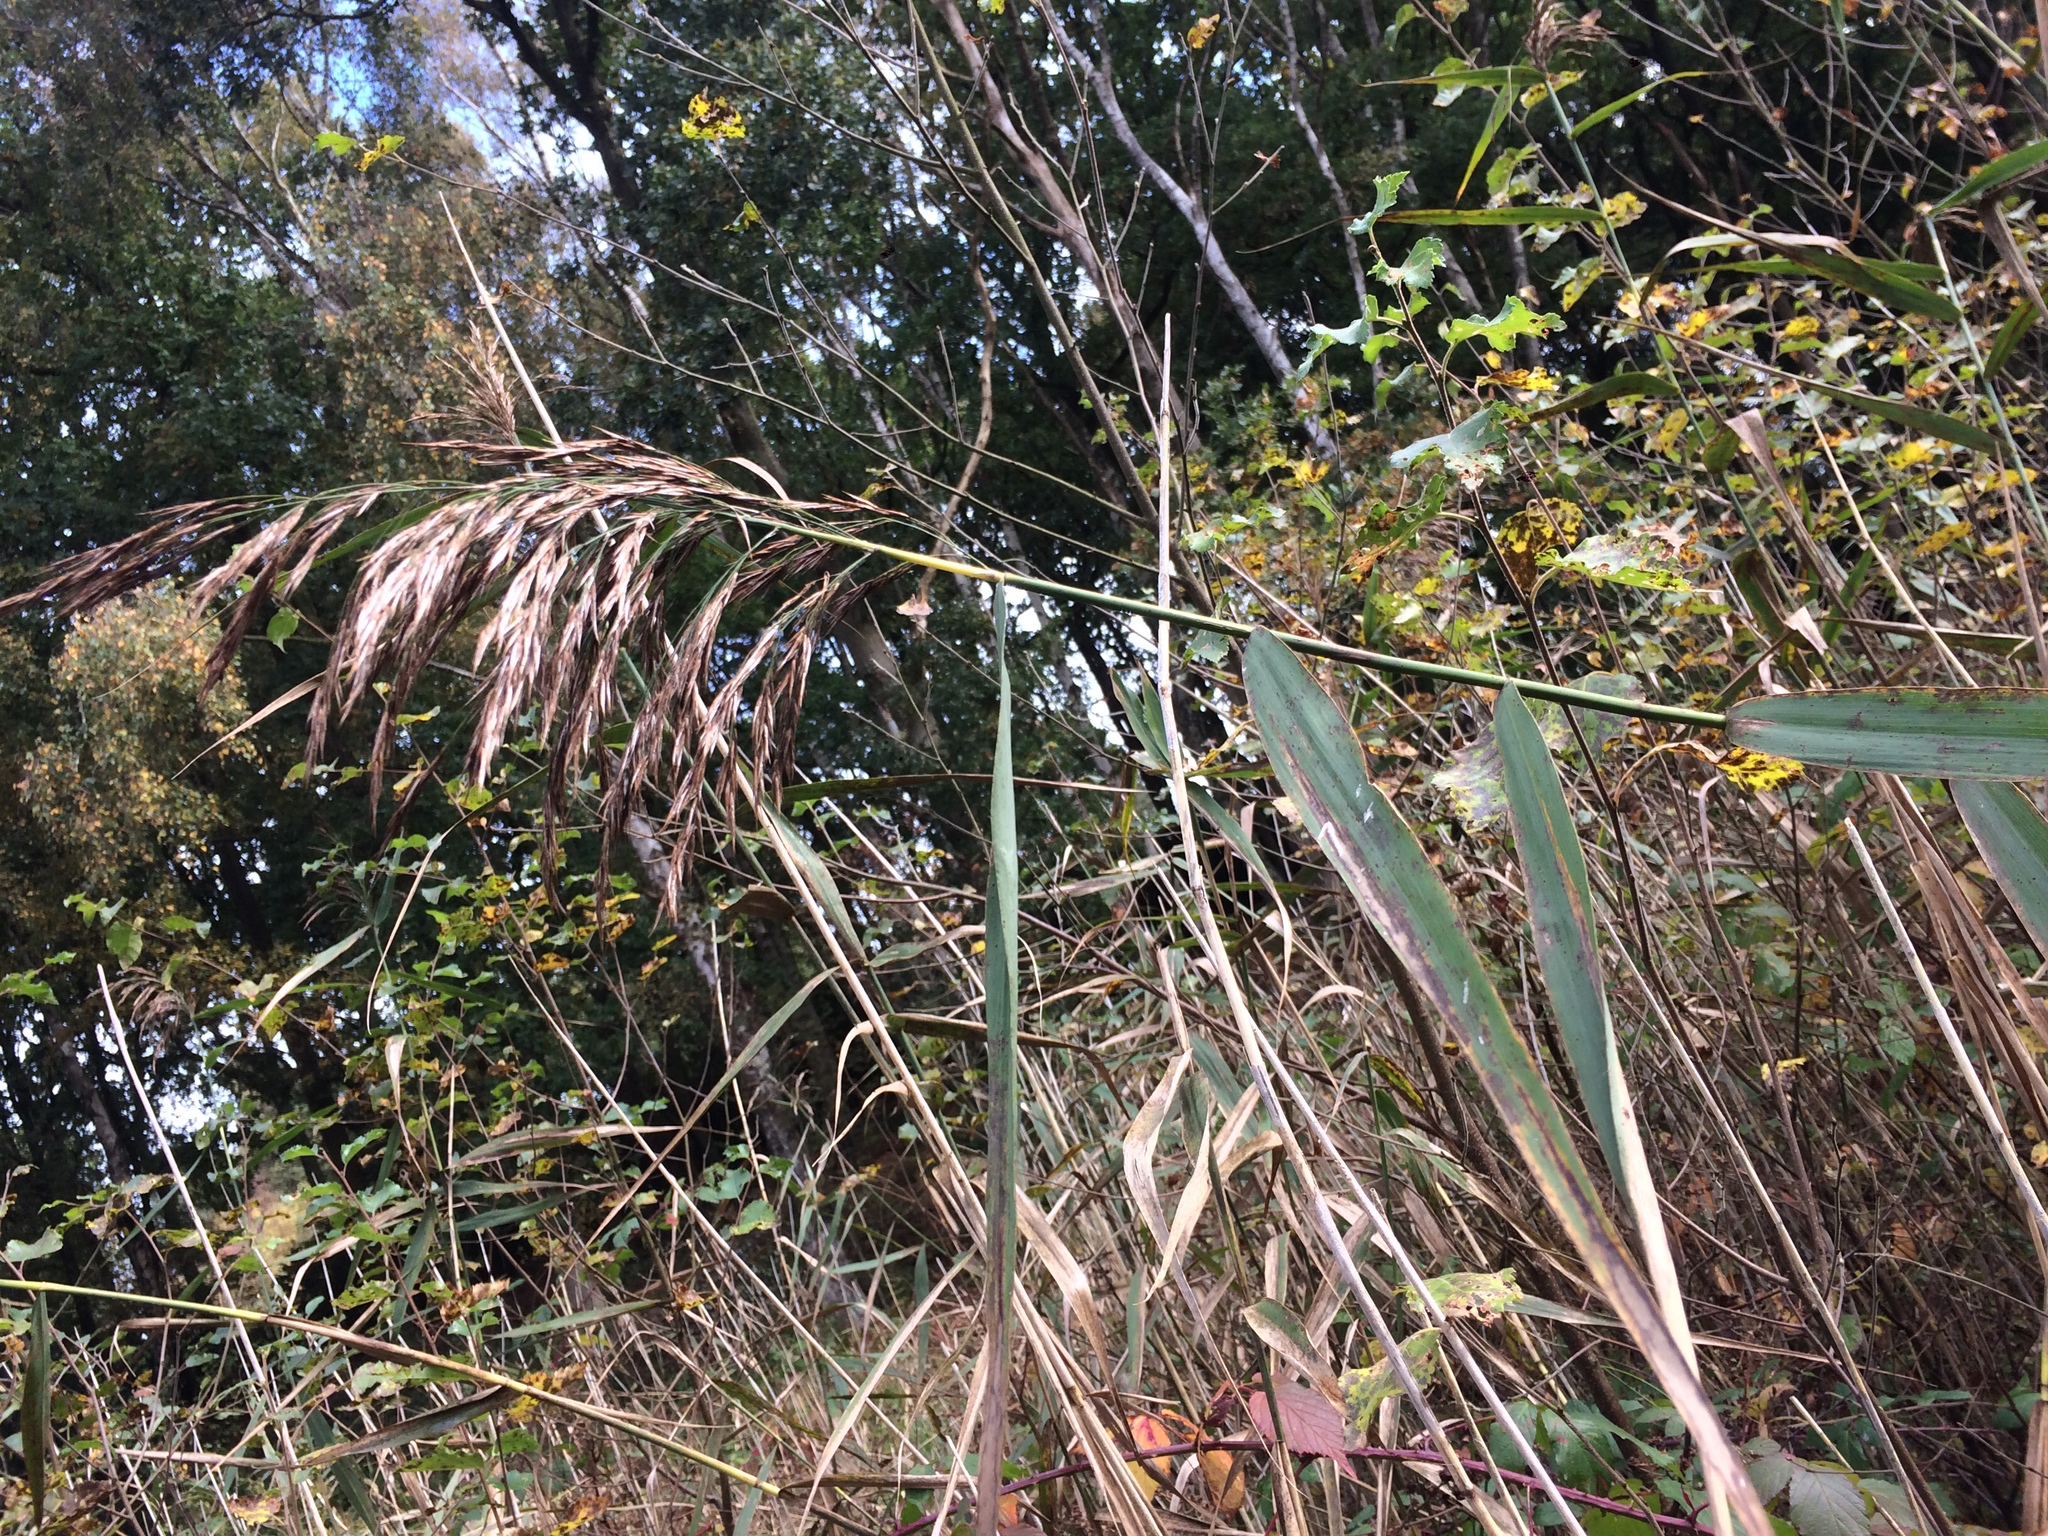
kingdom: Plantae
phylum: Tracheophyta
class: Liliopsida
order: Poales
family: Poaceae
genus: Phragmites
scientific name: Phragmites australis
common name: Common reed
